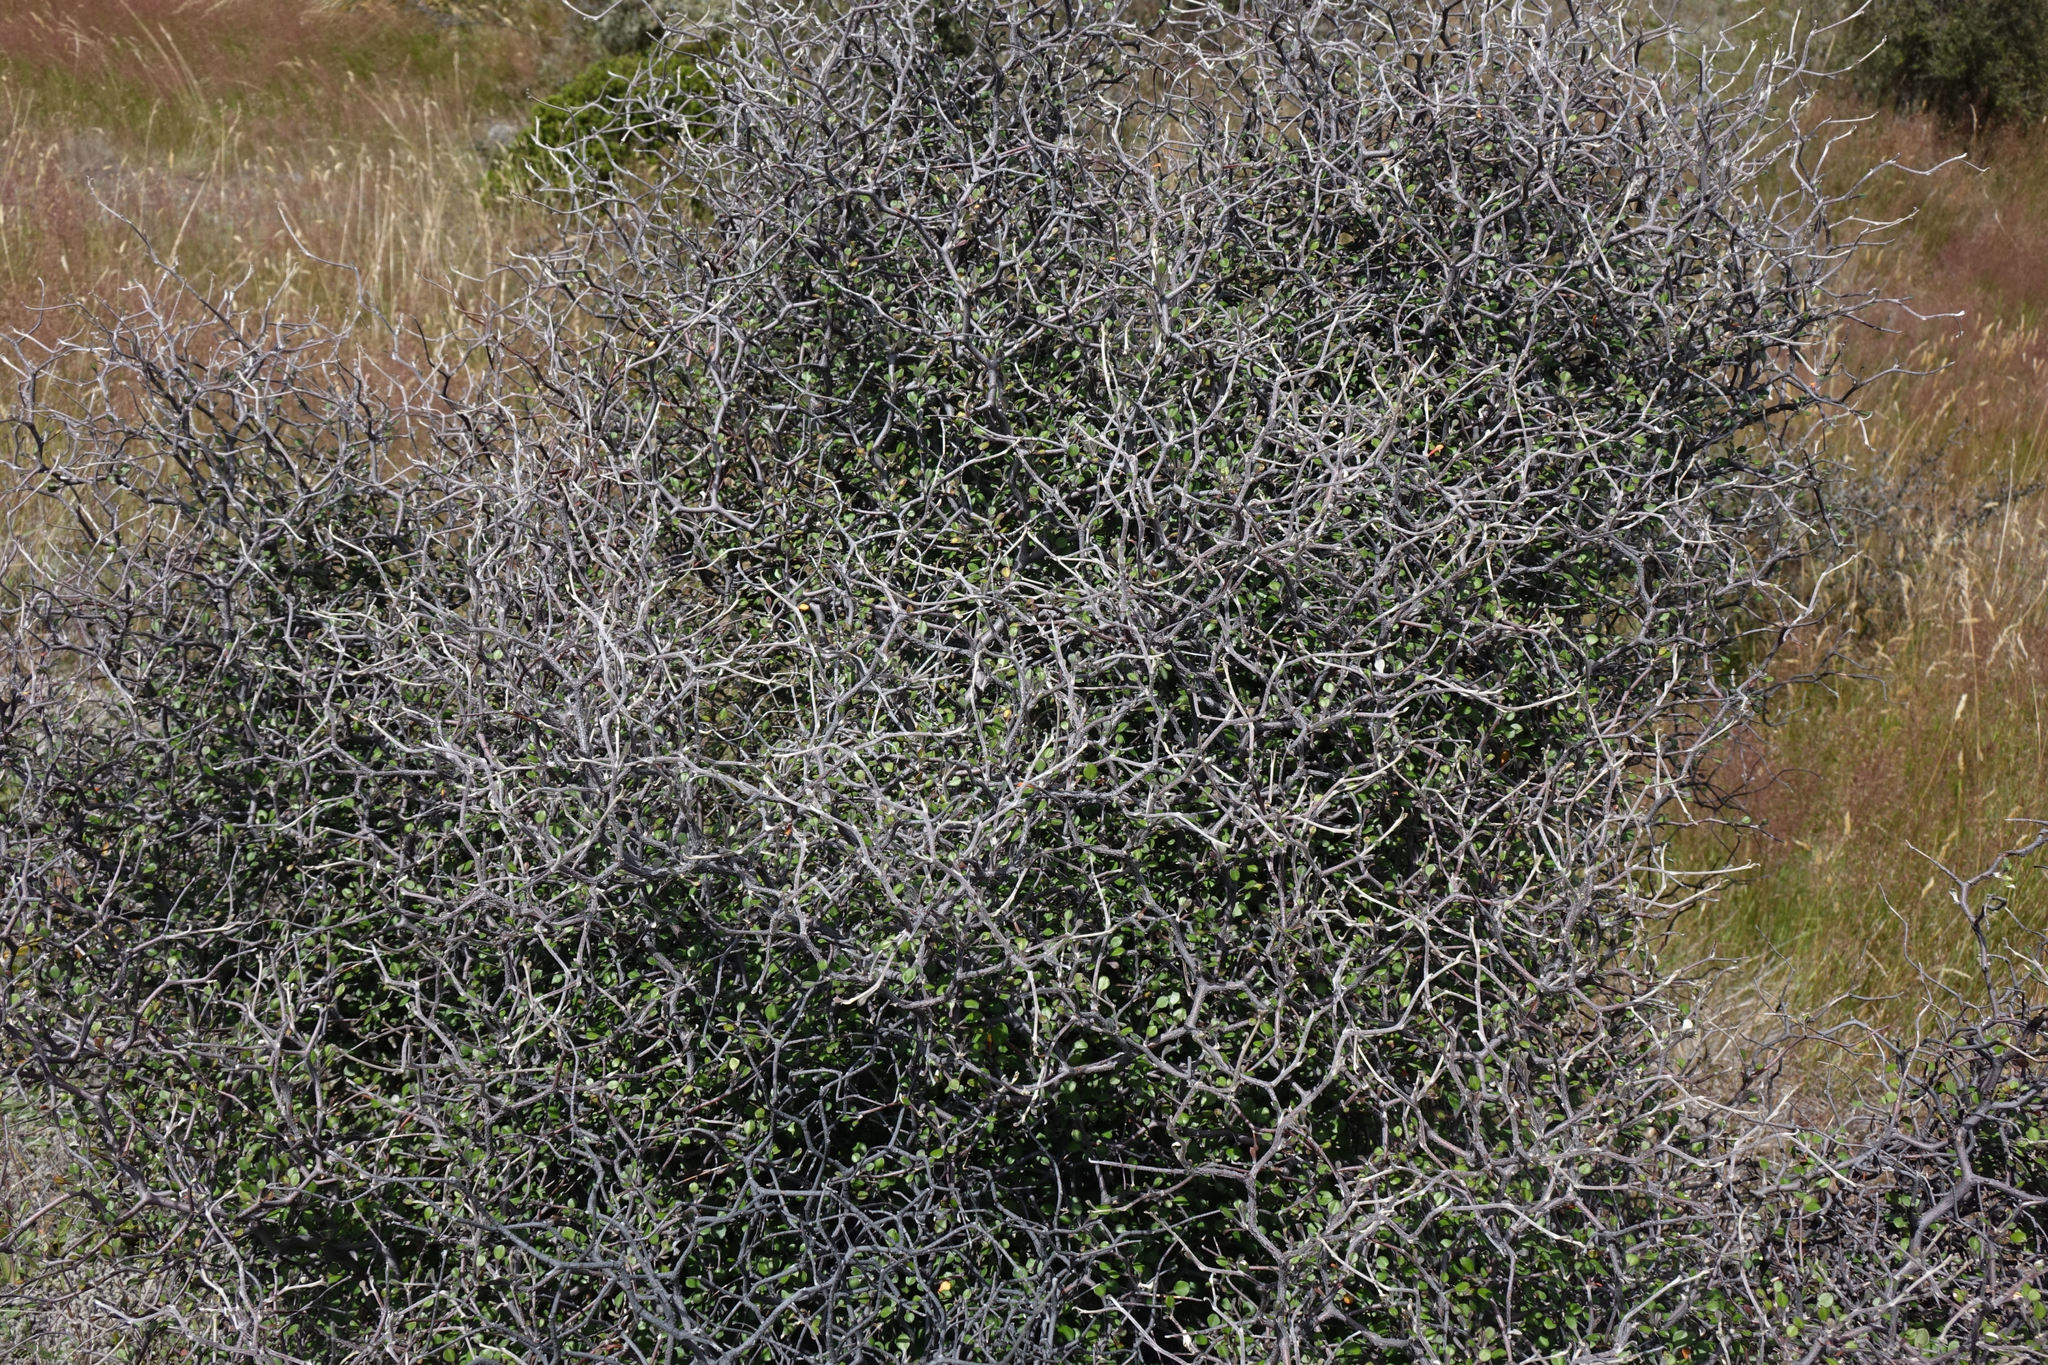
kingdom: Plantae
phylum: Tracheophyta
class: Magnoliopsida
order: Asterales
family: Argophyllaceae
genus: Corokia
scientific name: Corokia cotoneaster
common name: Wire nettingbush
